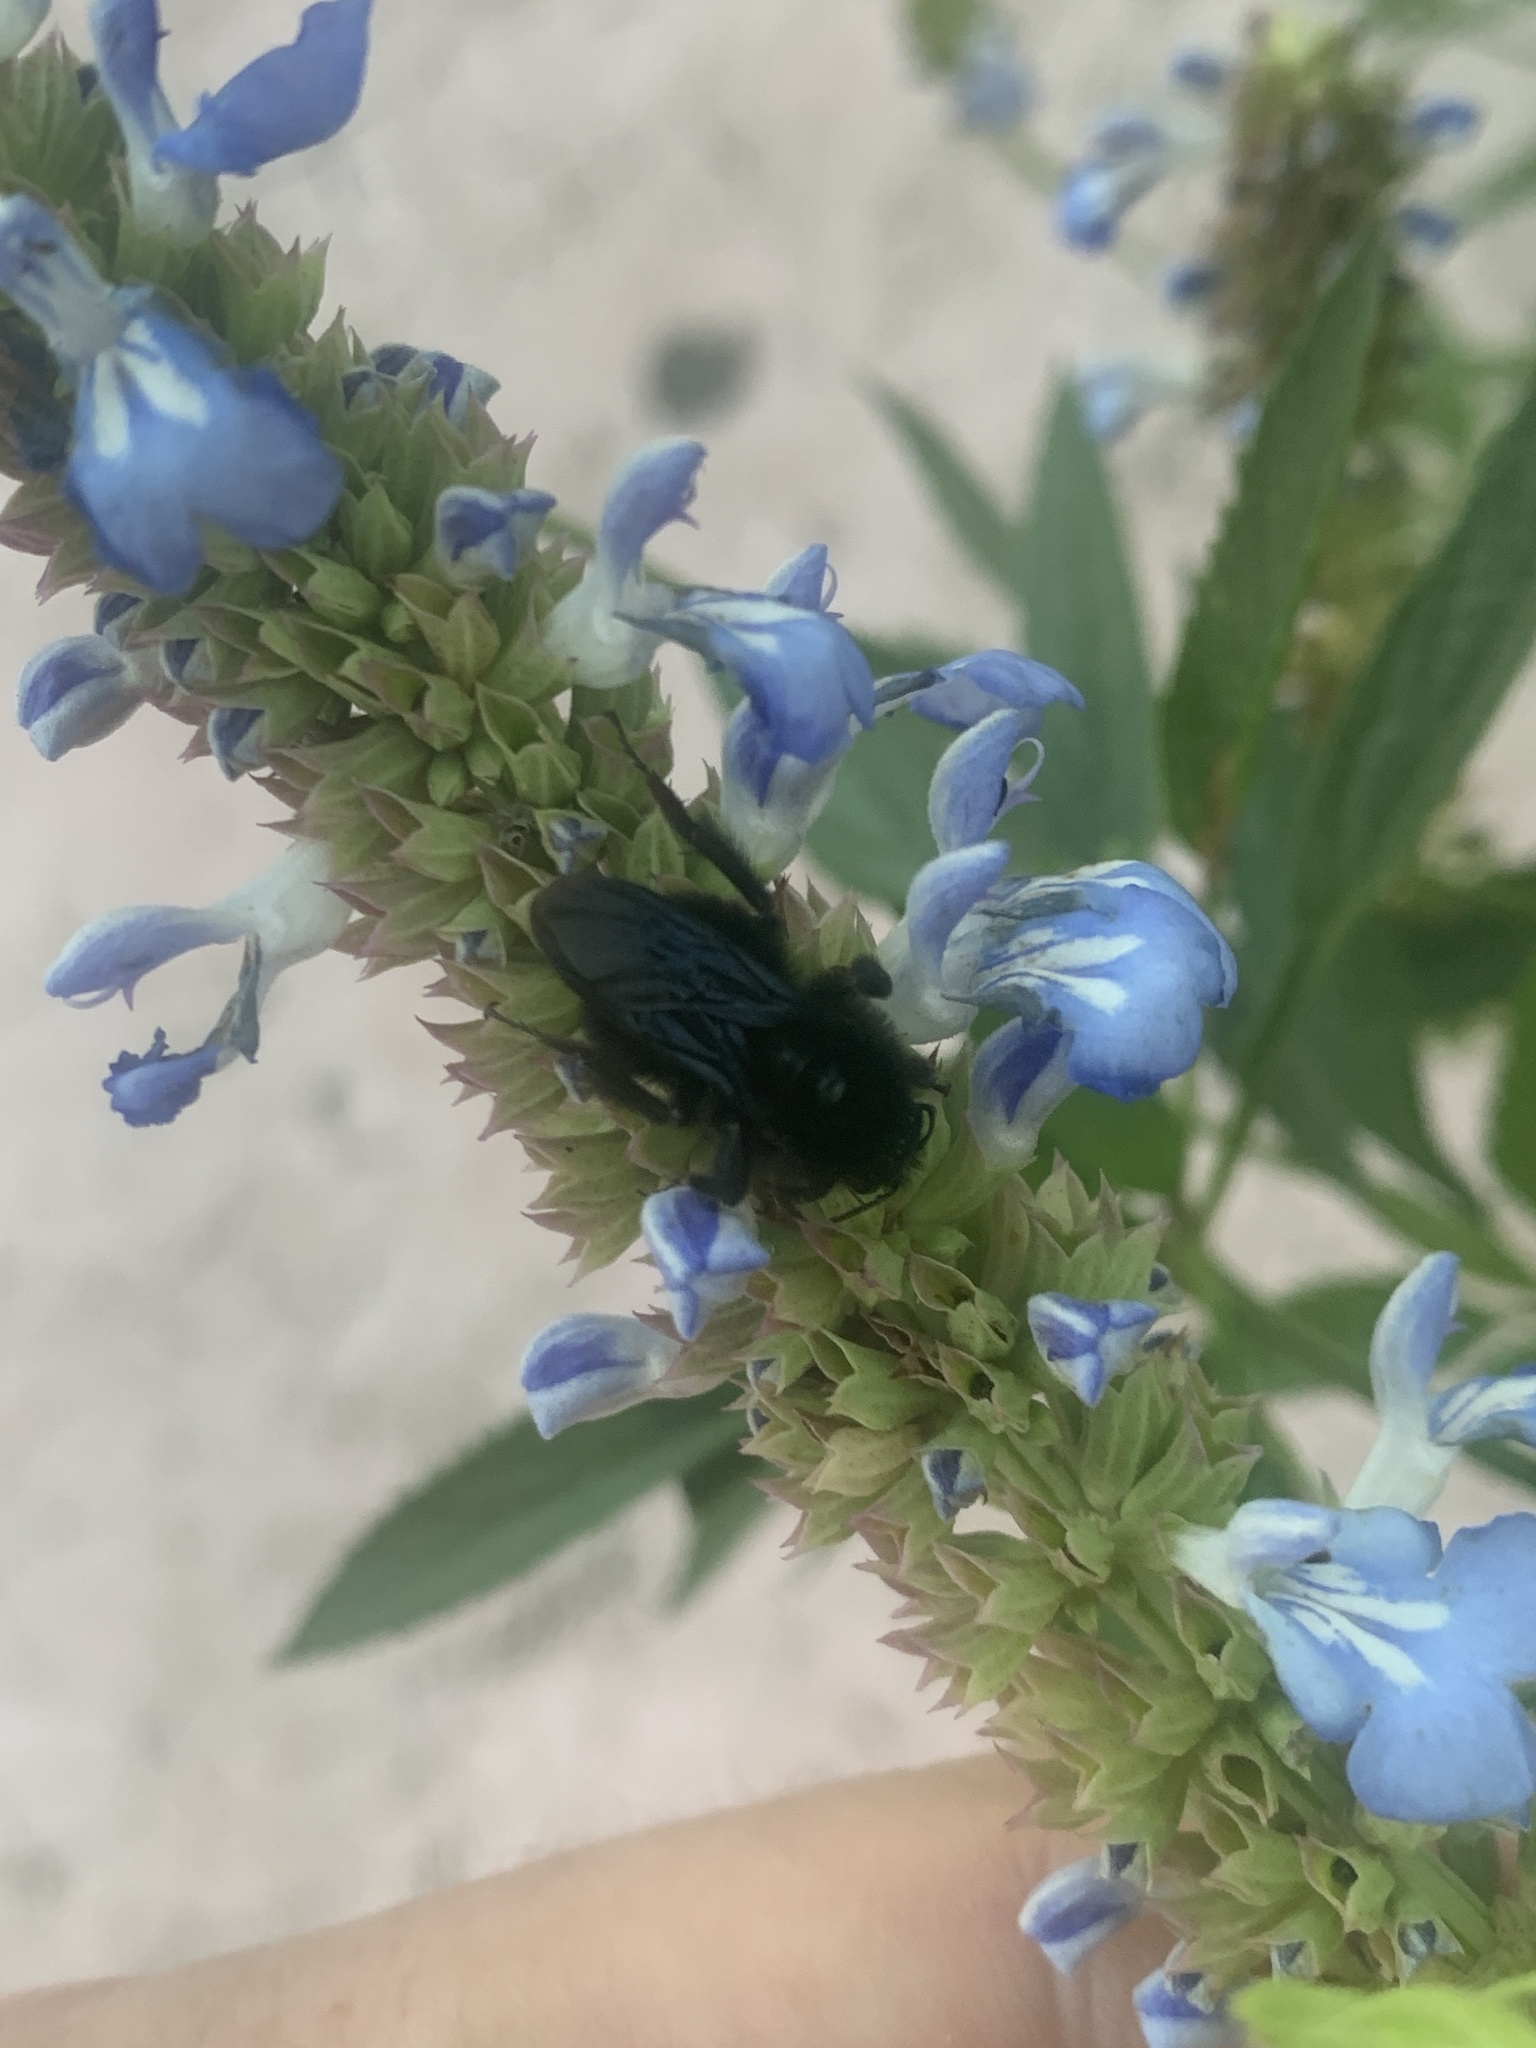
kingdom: Animalia
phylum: Arthropoda
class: Insecta
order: Hymenoptera
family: Apidae
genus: Bombus
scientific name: Bombus pauloensis
